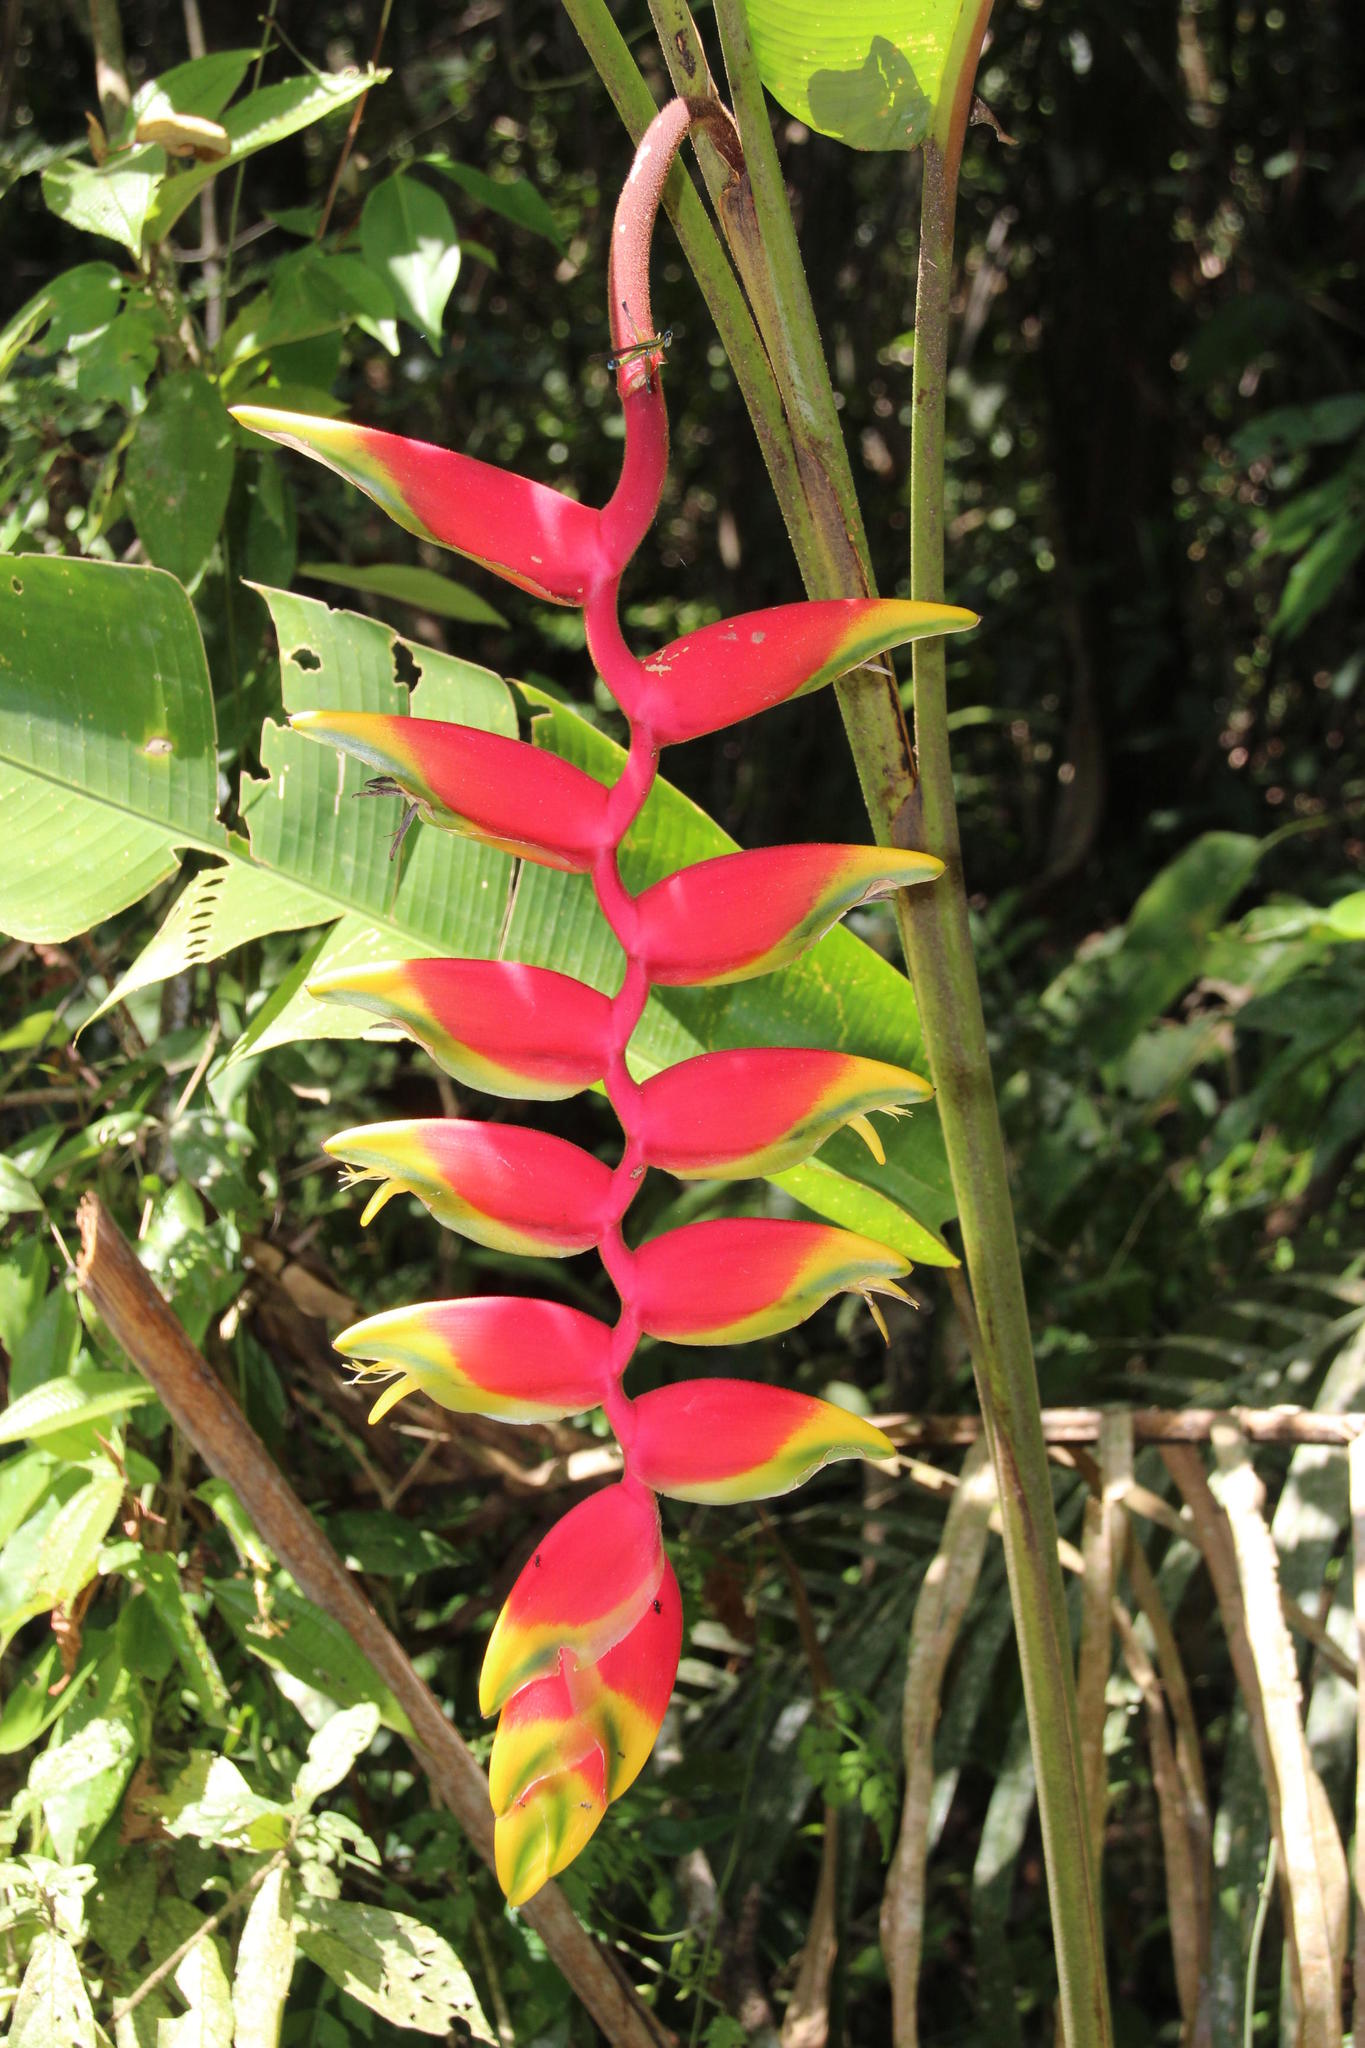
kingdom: Plantae
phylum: Tracheophyta
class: Liliopsida
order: Zingiberales
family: Heliconiaceae
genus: Heliconia
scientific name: Heliconia rostrata
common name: False bird of paradise
